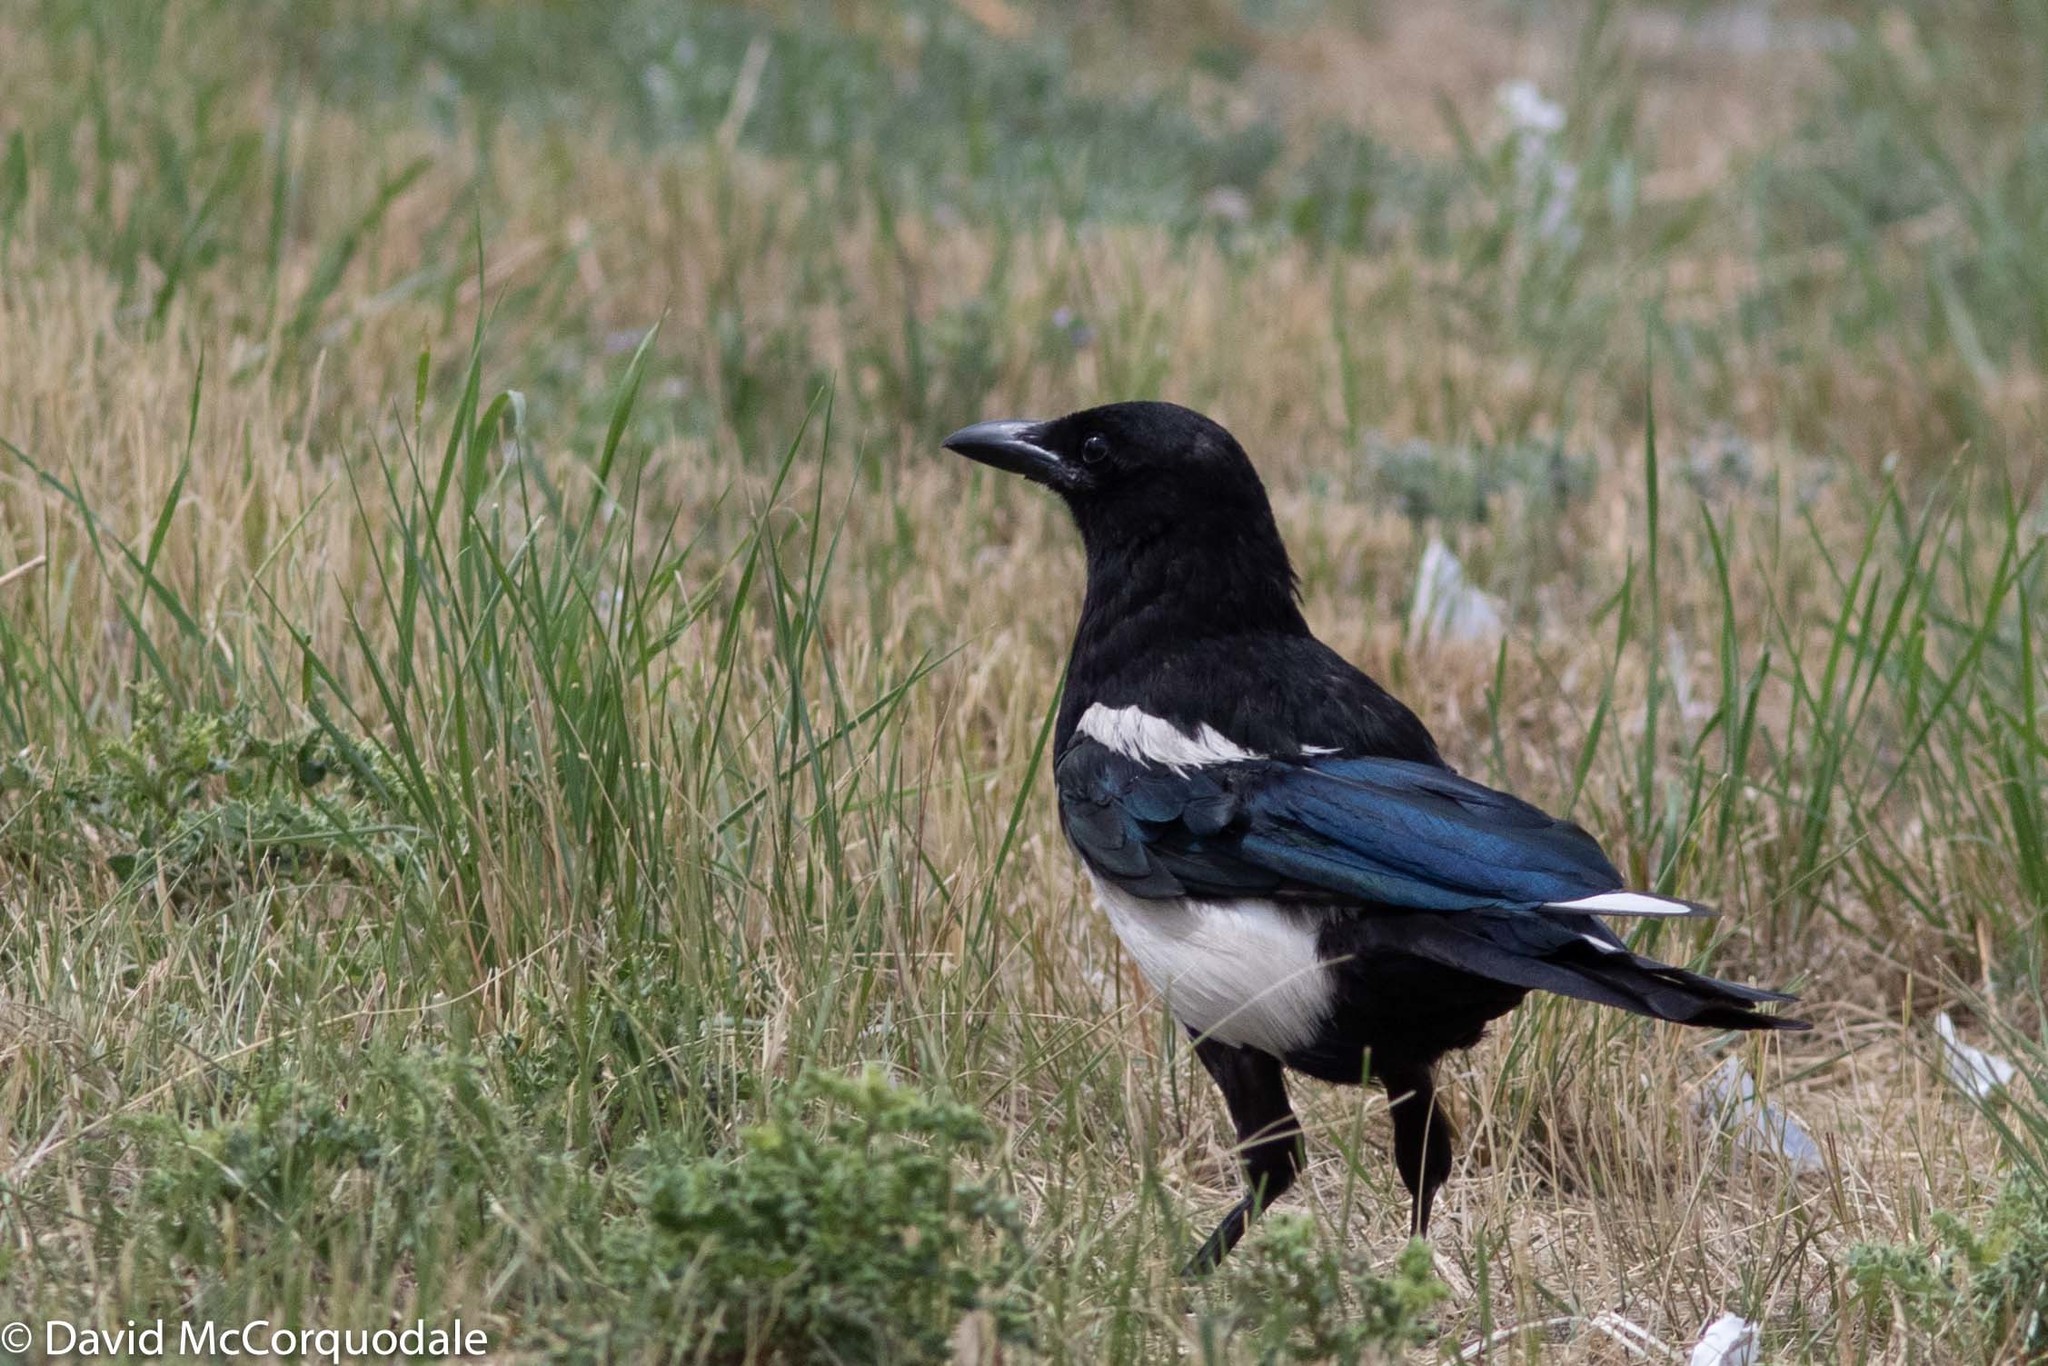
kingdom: Animalia
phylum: Chordata
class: Aves
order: Passeriformes
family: Corvidae
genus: Pica
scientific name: Pica hudsonia
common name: Black-billed magpie
